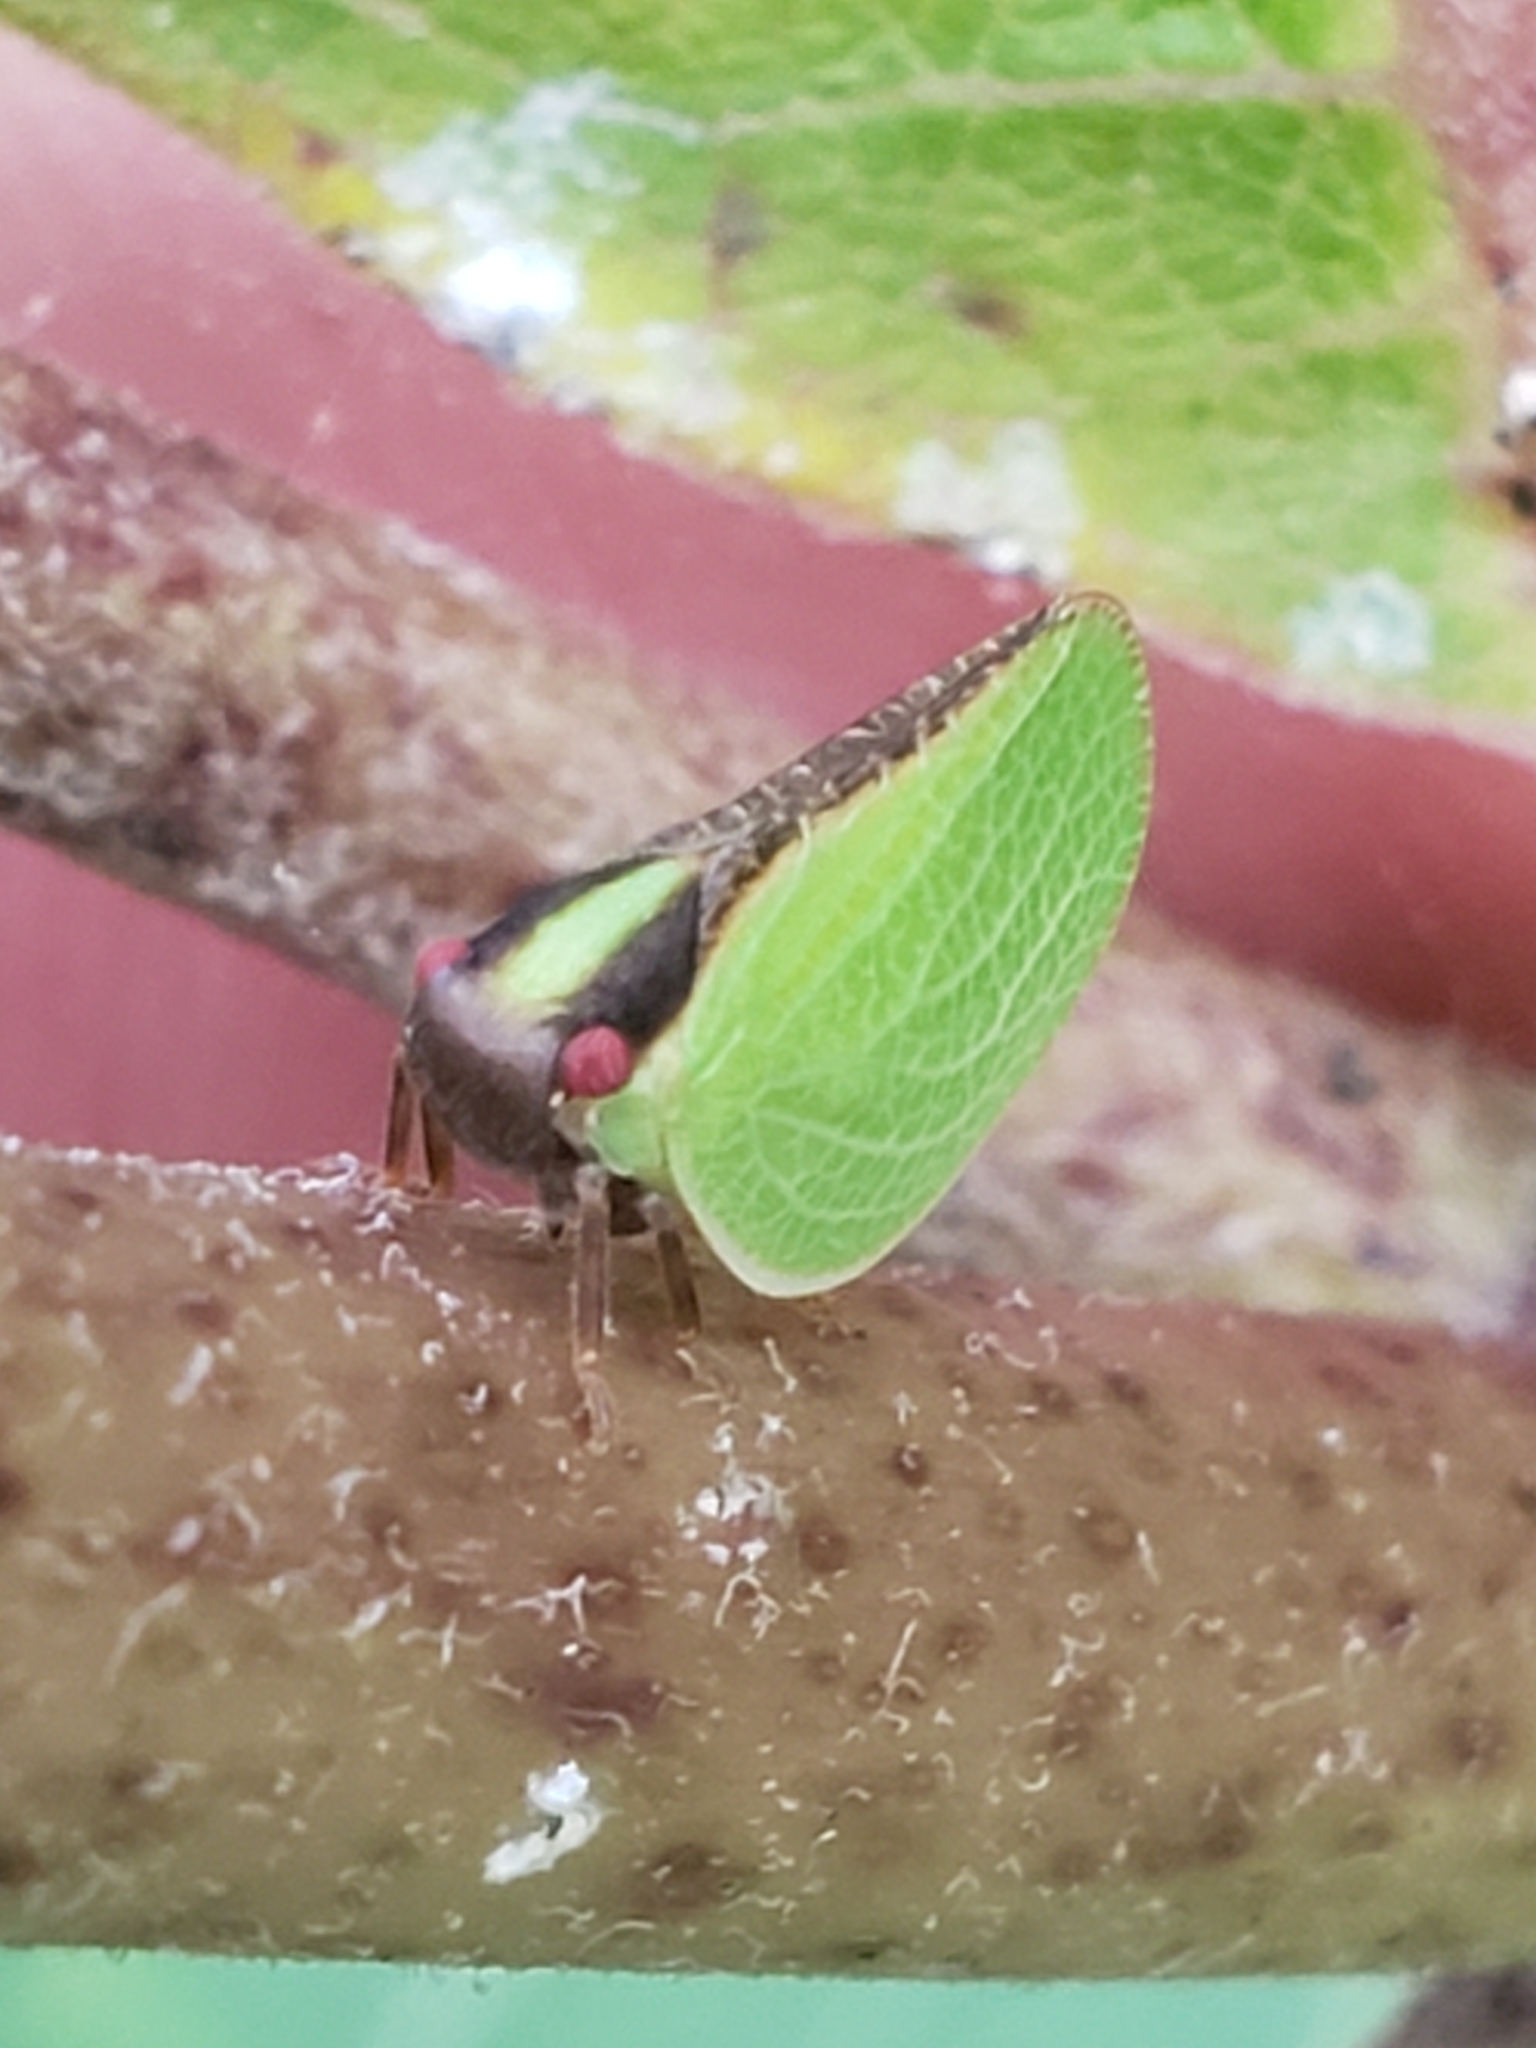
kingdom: Animalia
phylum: Arthropoda
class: Insecta
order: Hemiptera
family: Acanaloniidae
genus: Acanalonia
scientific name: Acanalonia bivittata
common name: Two-striped planthopper
